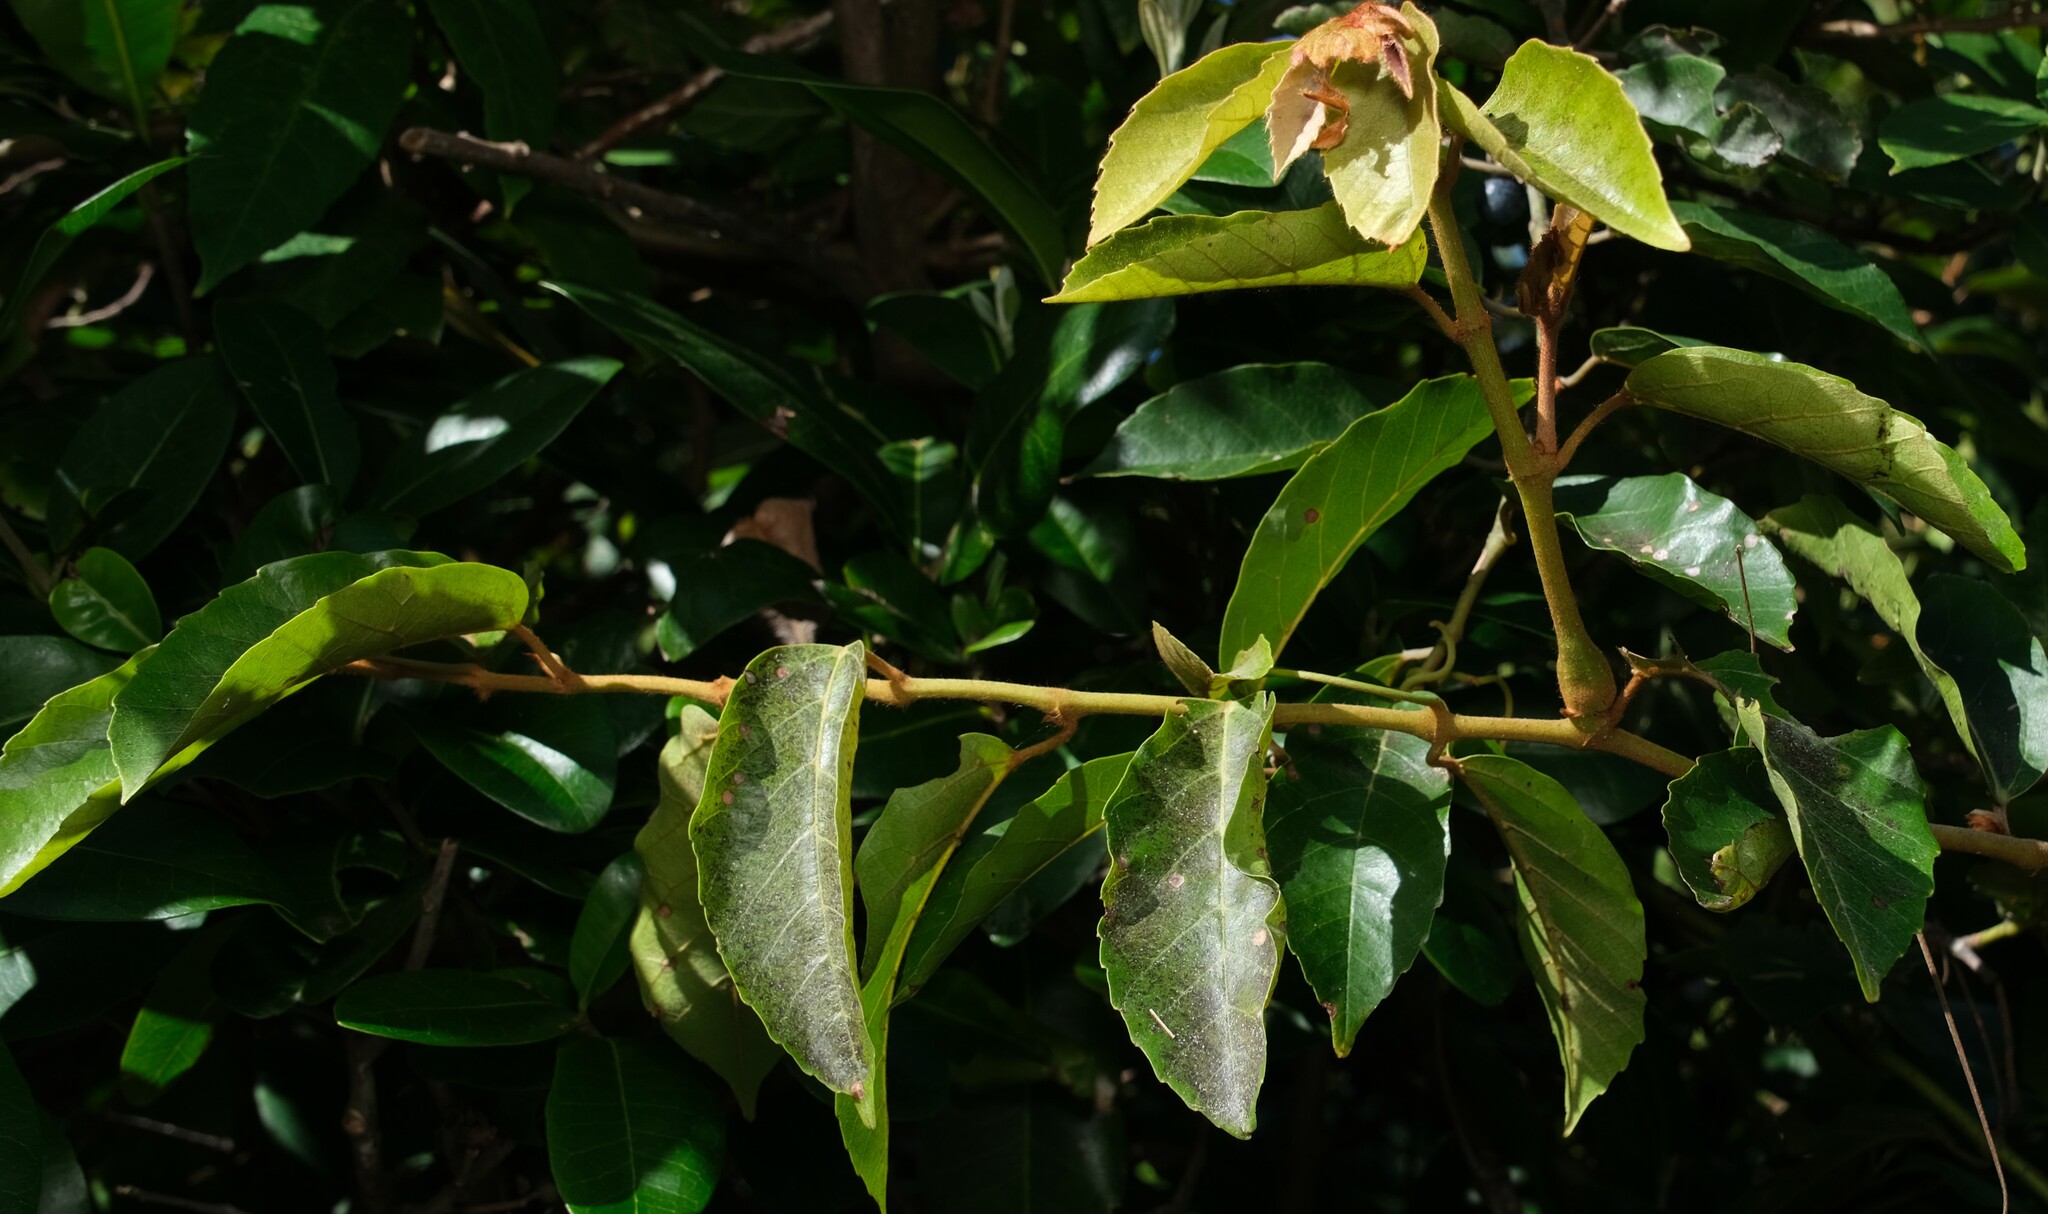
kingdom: Plantae
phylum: Tracheophyta
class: Magnoliopsida
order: Vitales
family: Vitaceae
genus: Cissus
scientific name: Cissus antarctica
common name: Kangaroo vine
